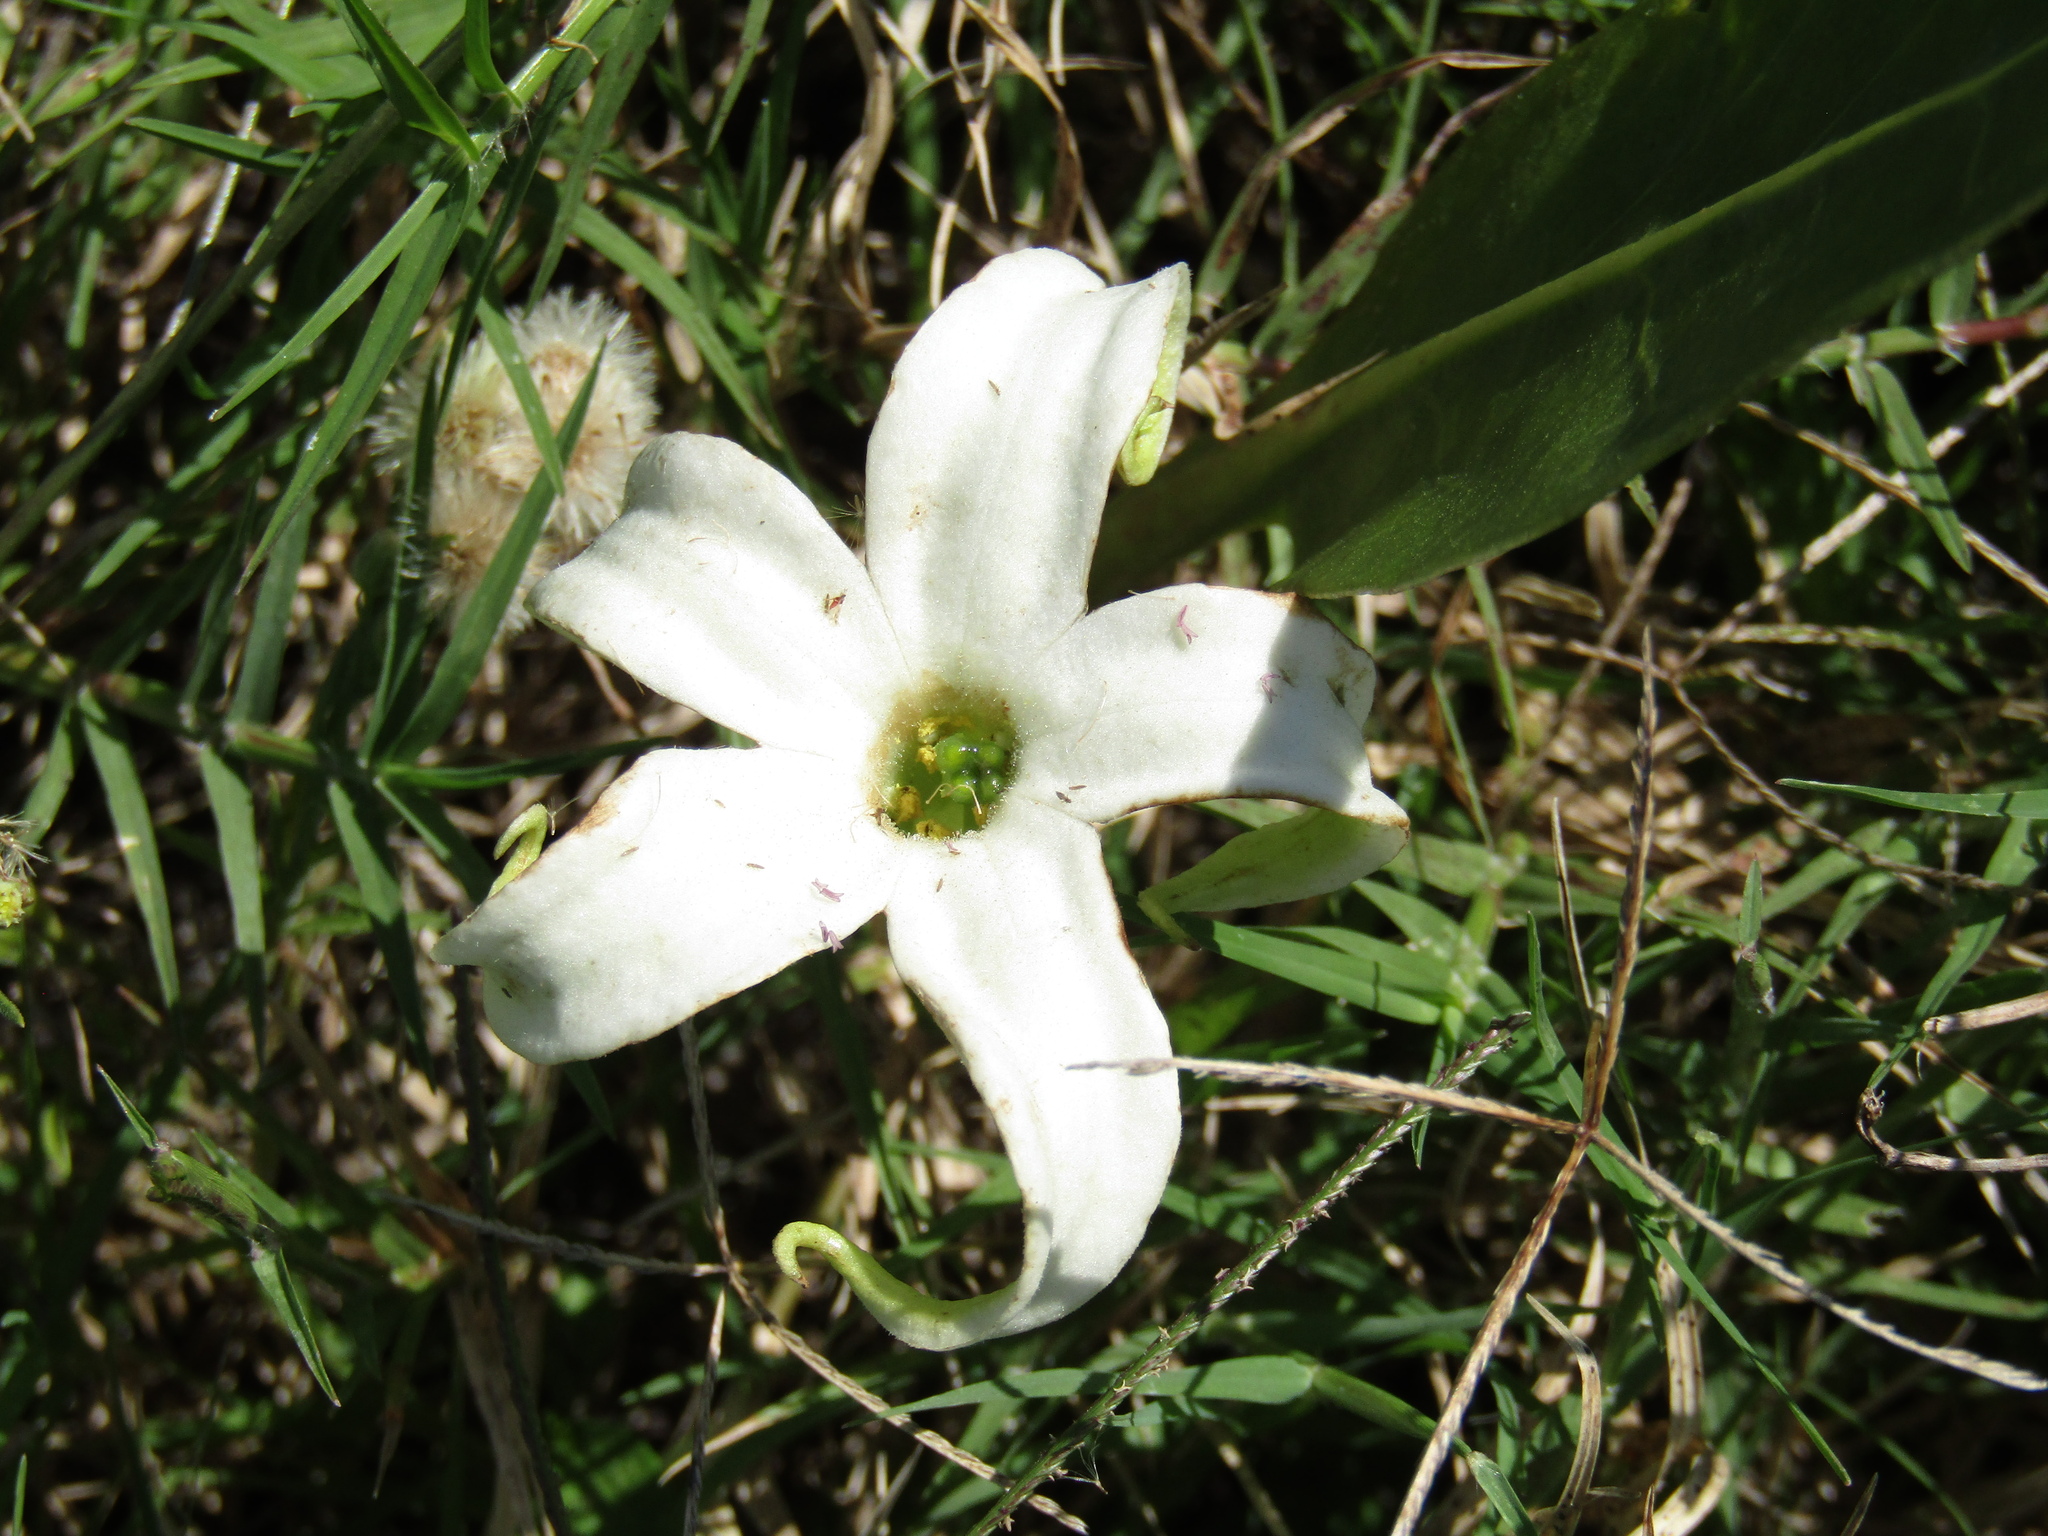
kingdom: Plantae
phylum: Tracheophyta
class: Magnoliopsida
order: Solanales
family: Solanaceae
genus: Jaborosa
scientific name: Jaborosa integrifolia
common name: Springblossom
